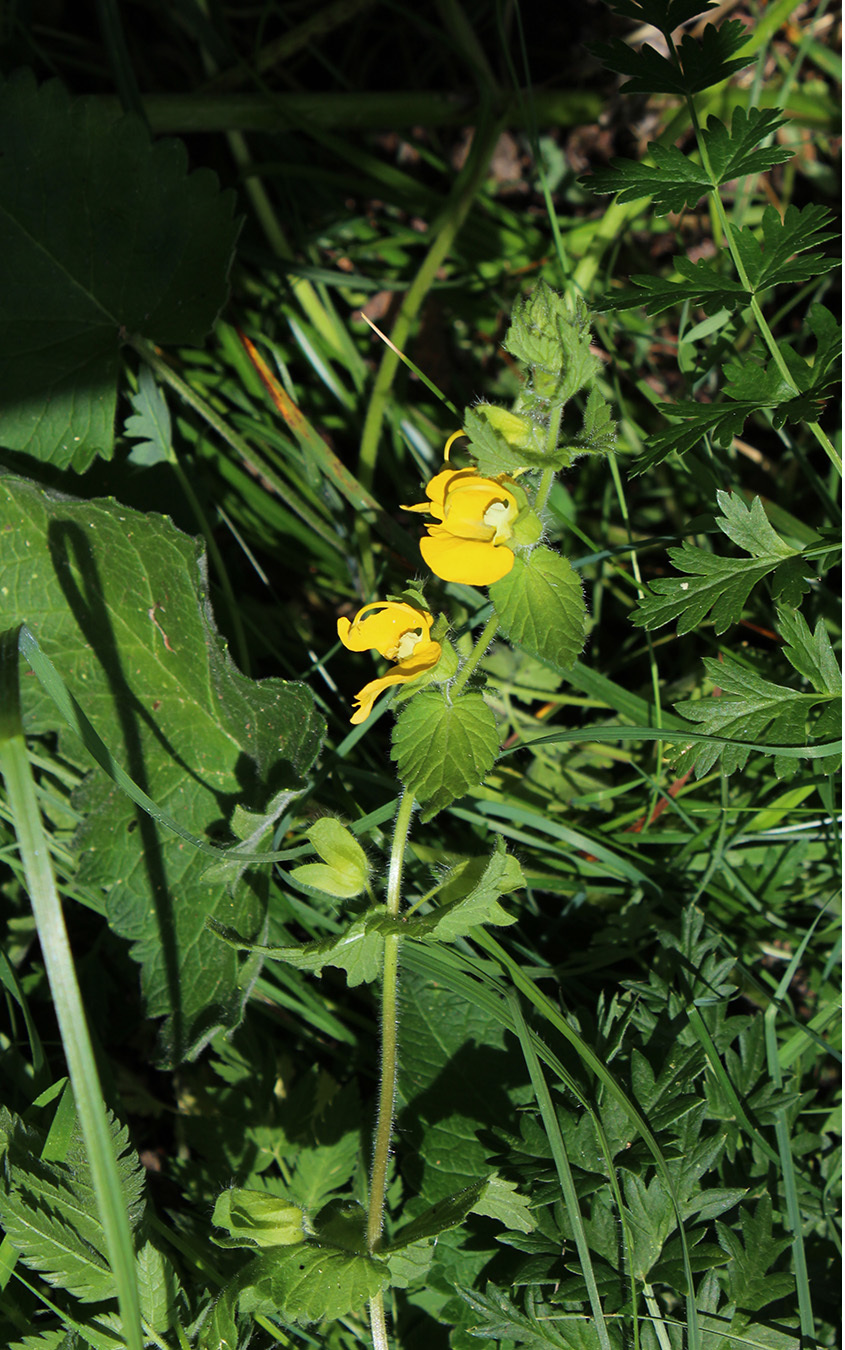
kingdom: Plantae
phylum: Tracheophyta
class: Magnoliopsida
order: Lamiales
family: Orobanchaceae
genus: Rhynchocorys
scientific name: Rhynchocorys orientalis
